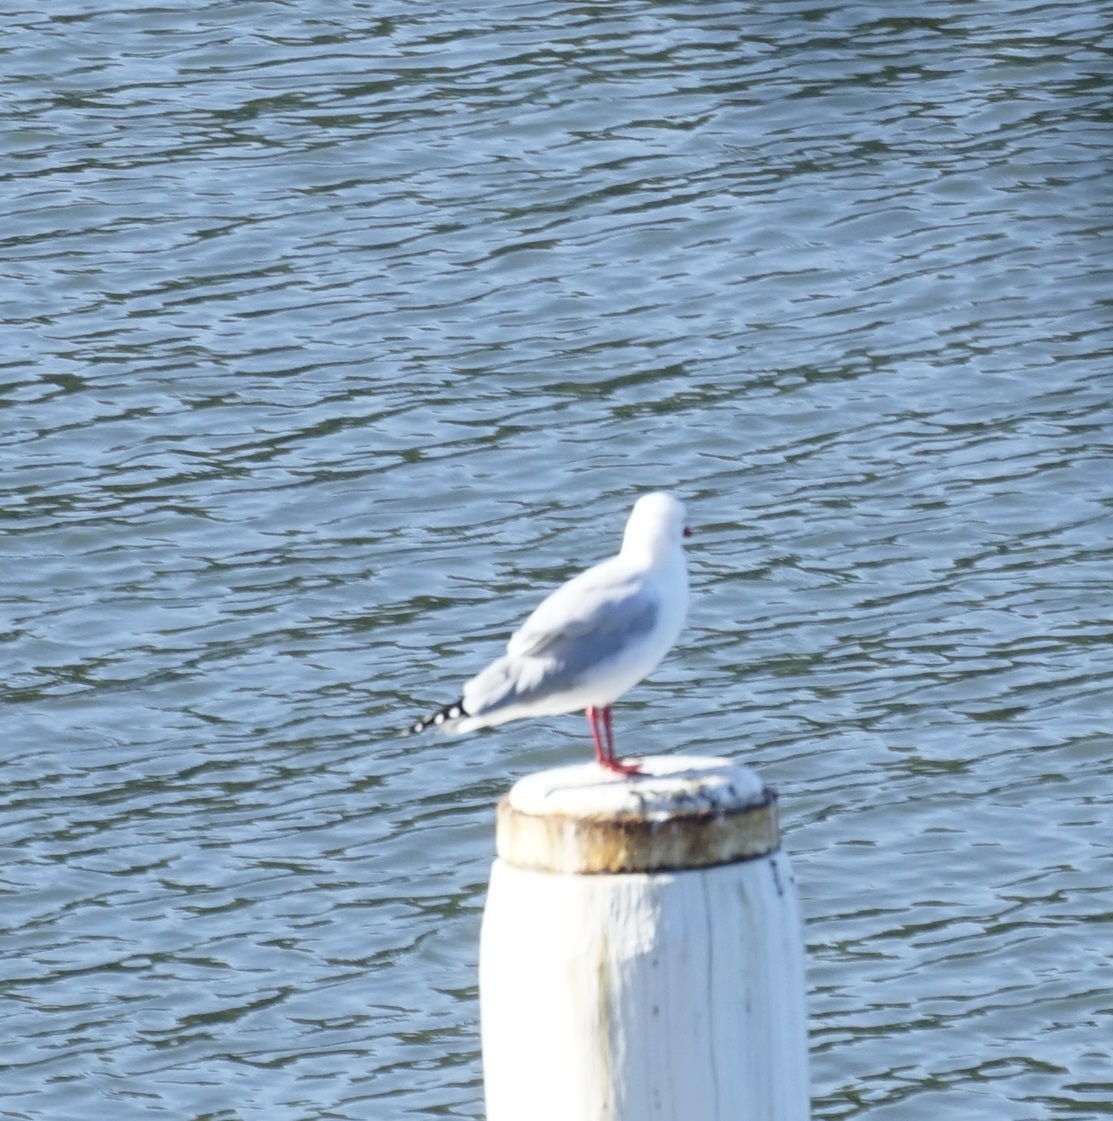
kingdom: Animalia
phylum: Chordata
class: Aves
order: Charadriiformes
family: Laridae
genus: Chroicocephalus
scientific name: Chroicocephalus novaehollandiae
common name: Silver gull
